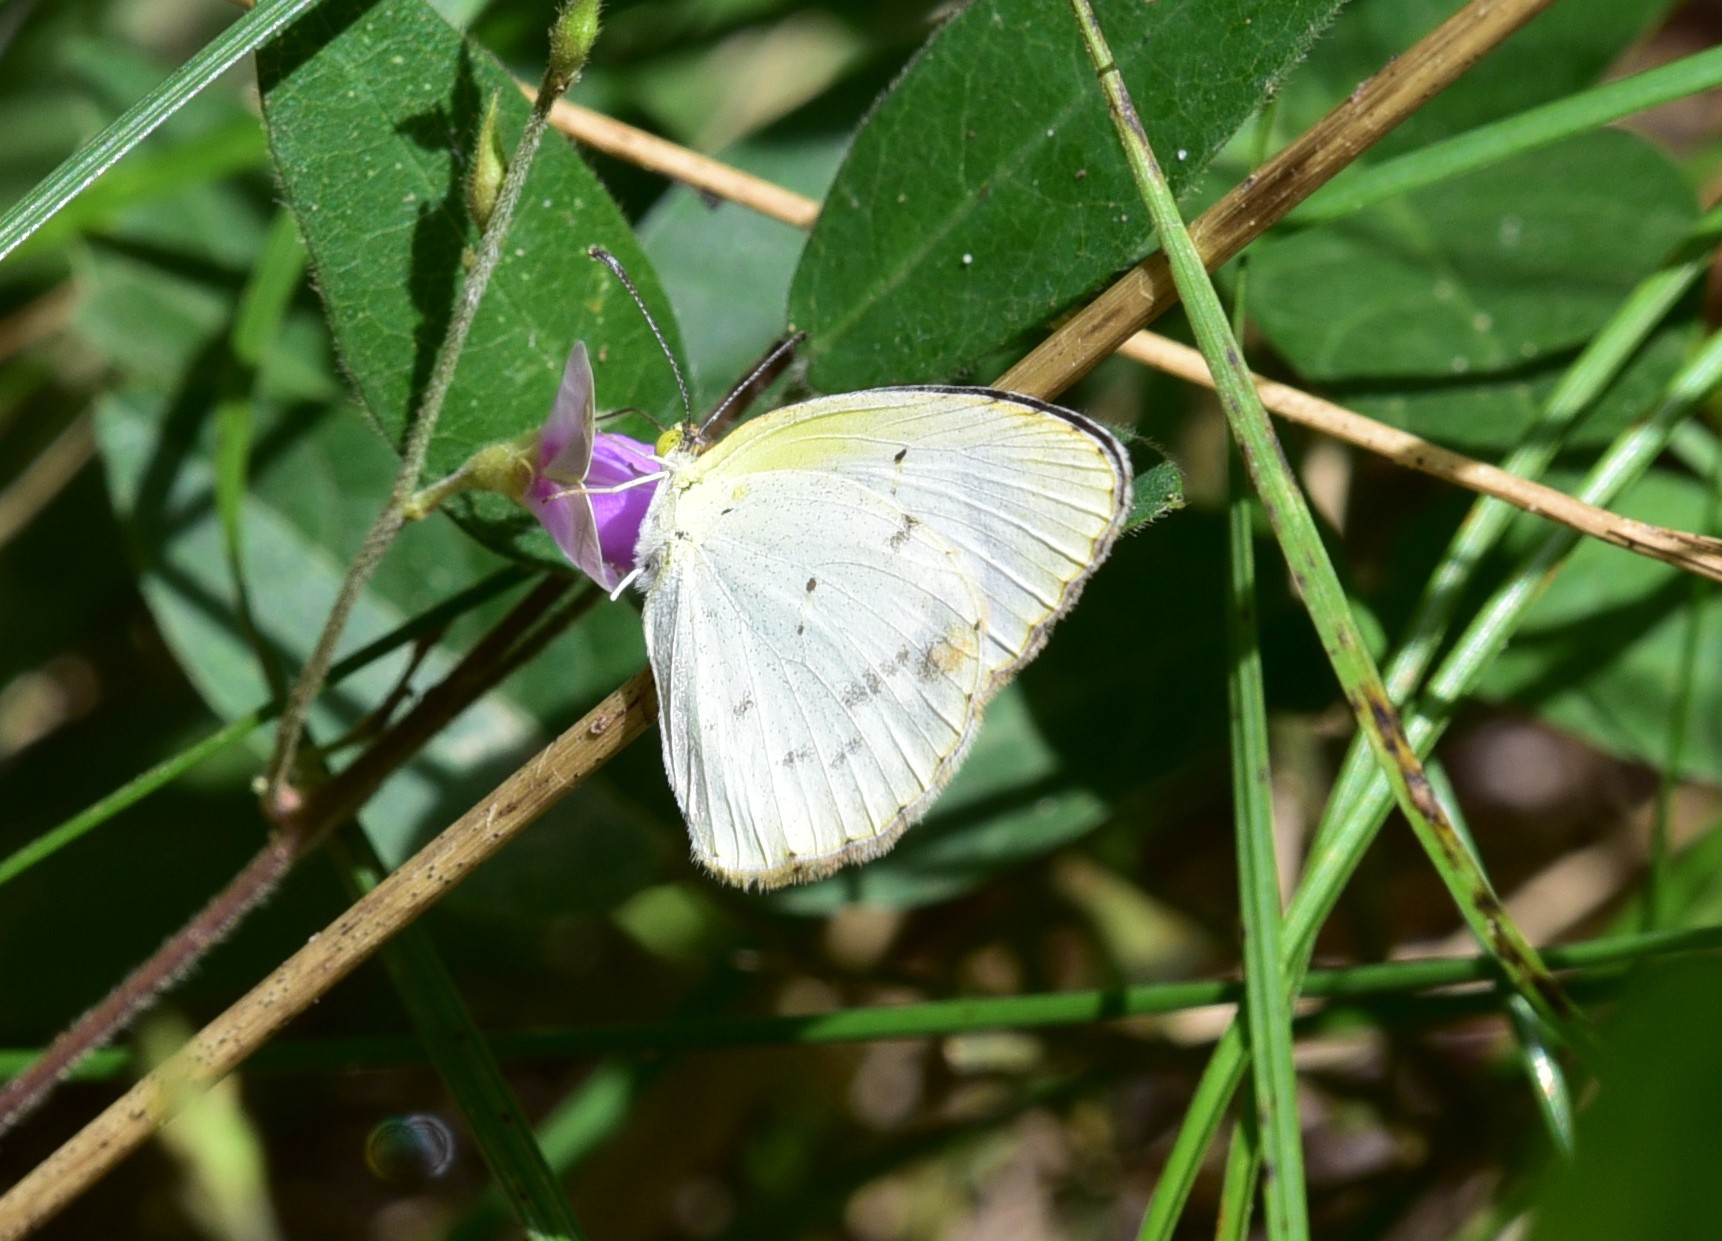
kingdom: Animalia
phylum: Arthropoda
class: Insecta
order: Lepidoptera
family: Pieridae
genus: Pyrisitia
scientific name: Pyrisitia lisa
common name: Little yellow
